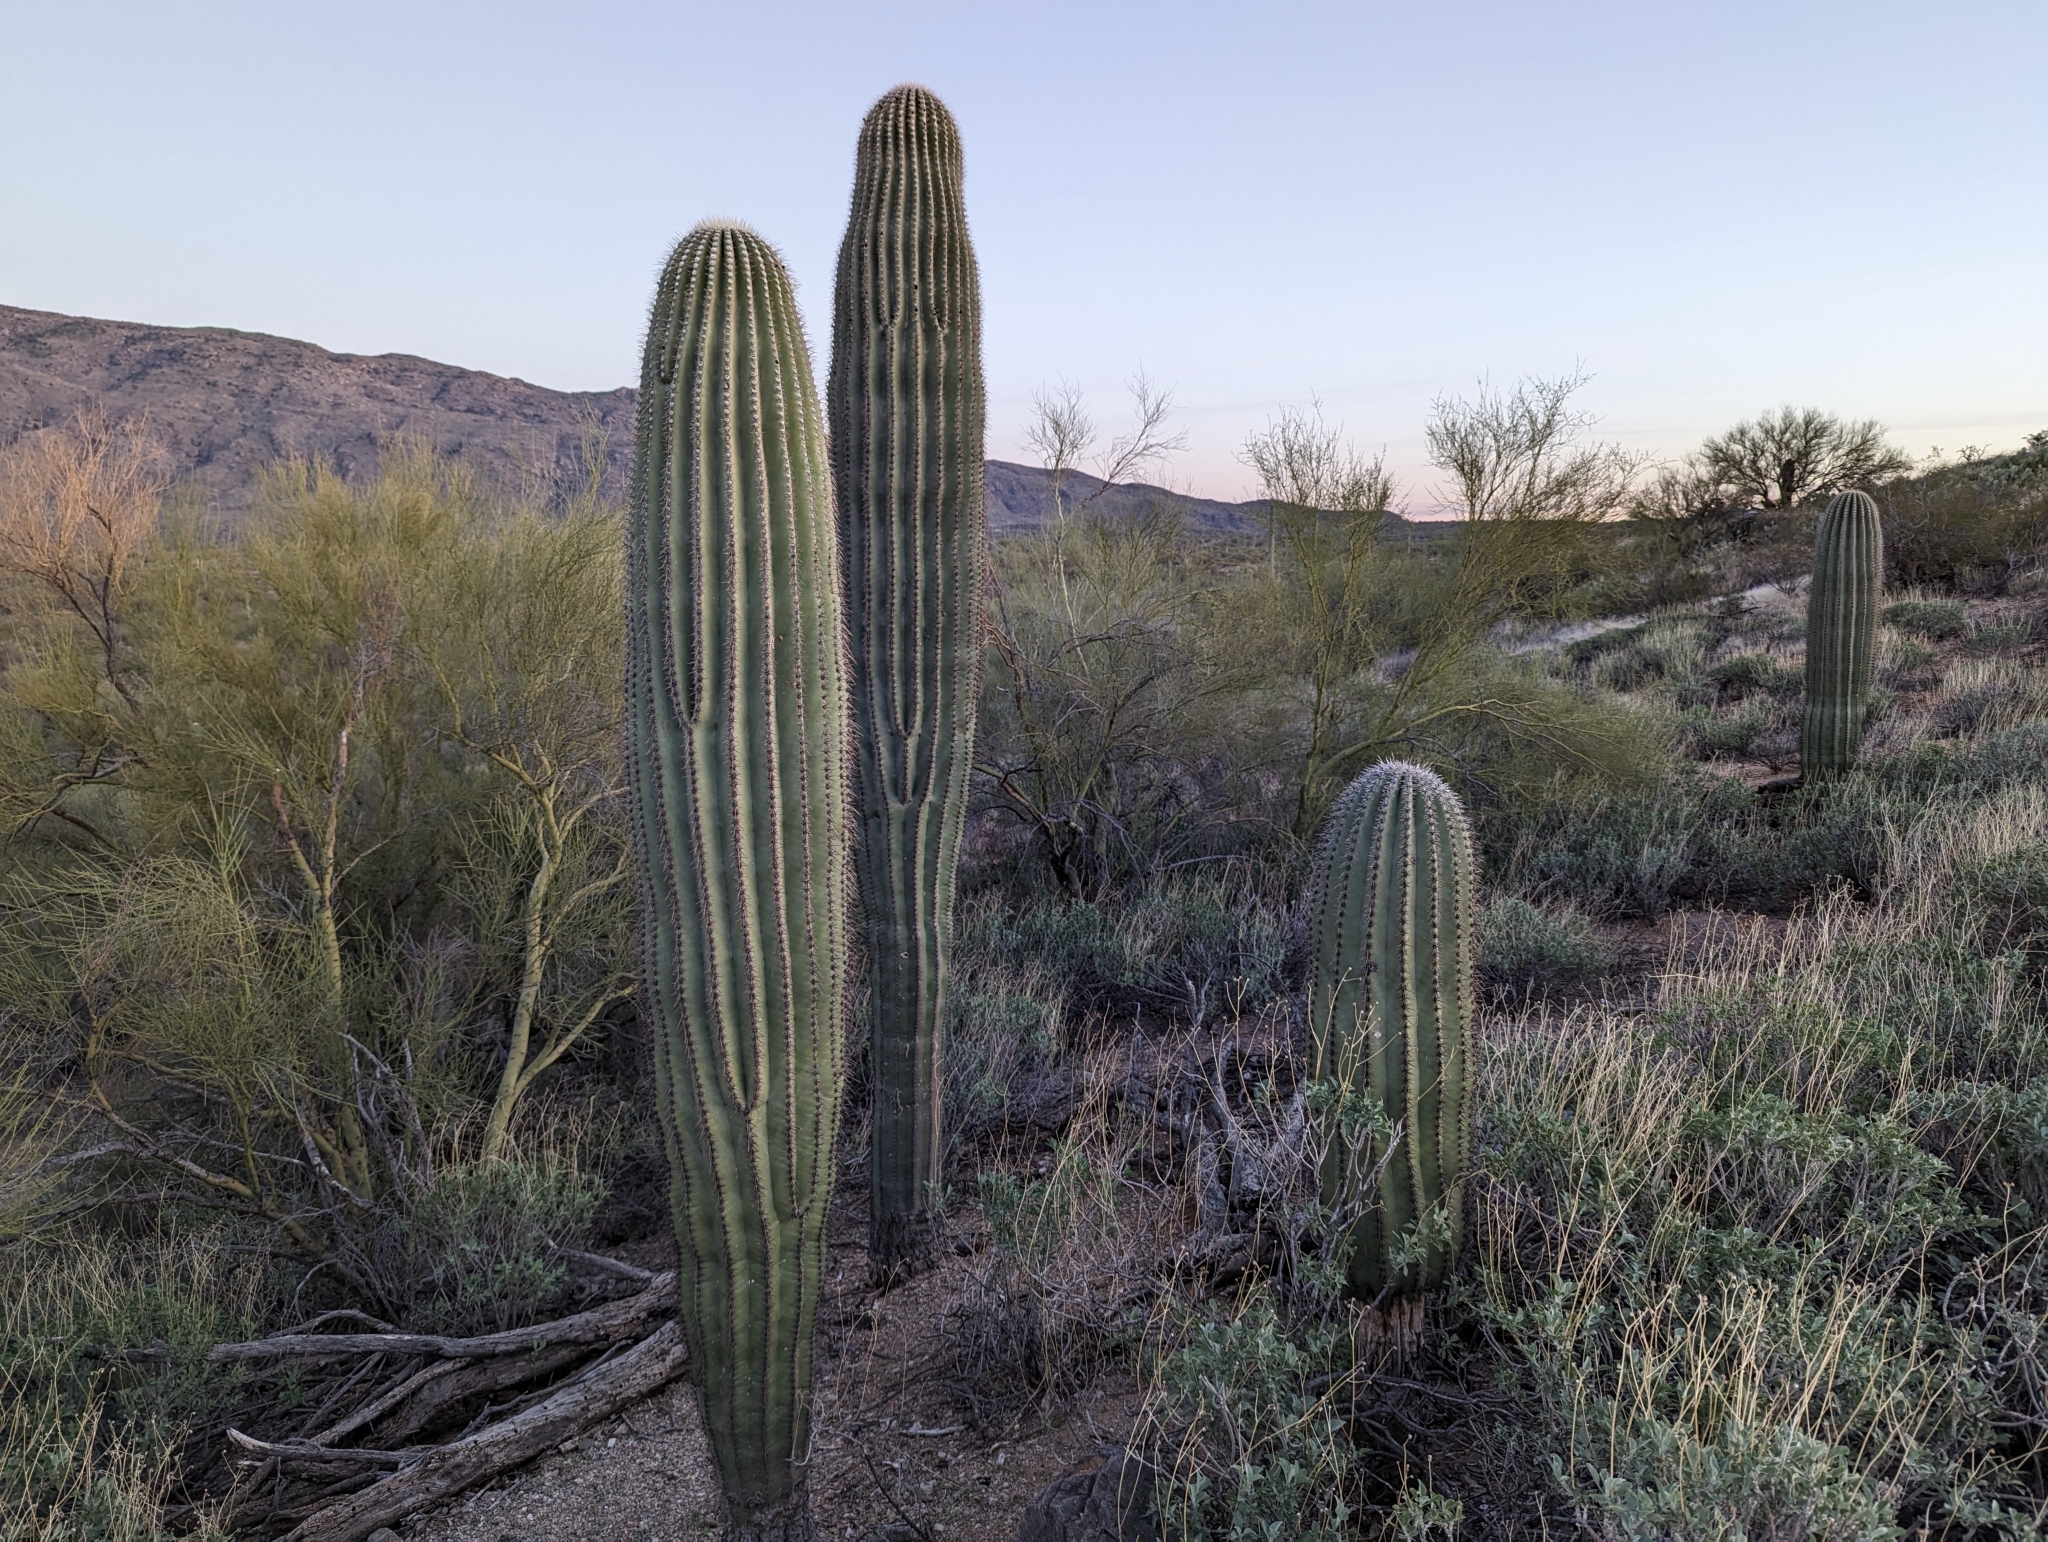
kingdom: Plantae
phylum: Tracheophyta
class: Magnoliopsida
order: Caryophyllales
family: Cactaceae
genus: Carnegiea
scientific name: Carnegiea gigantea
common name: Saguaro
